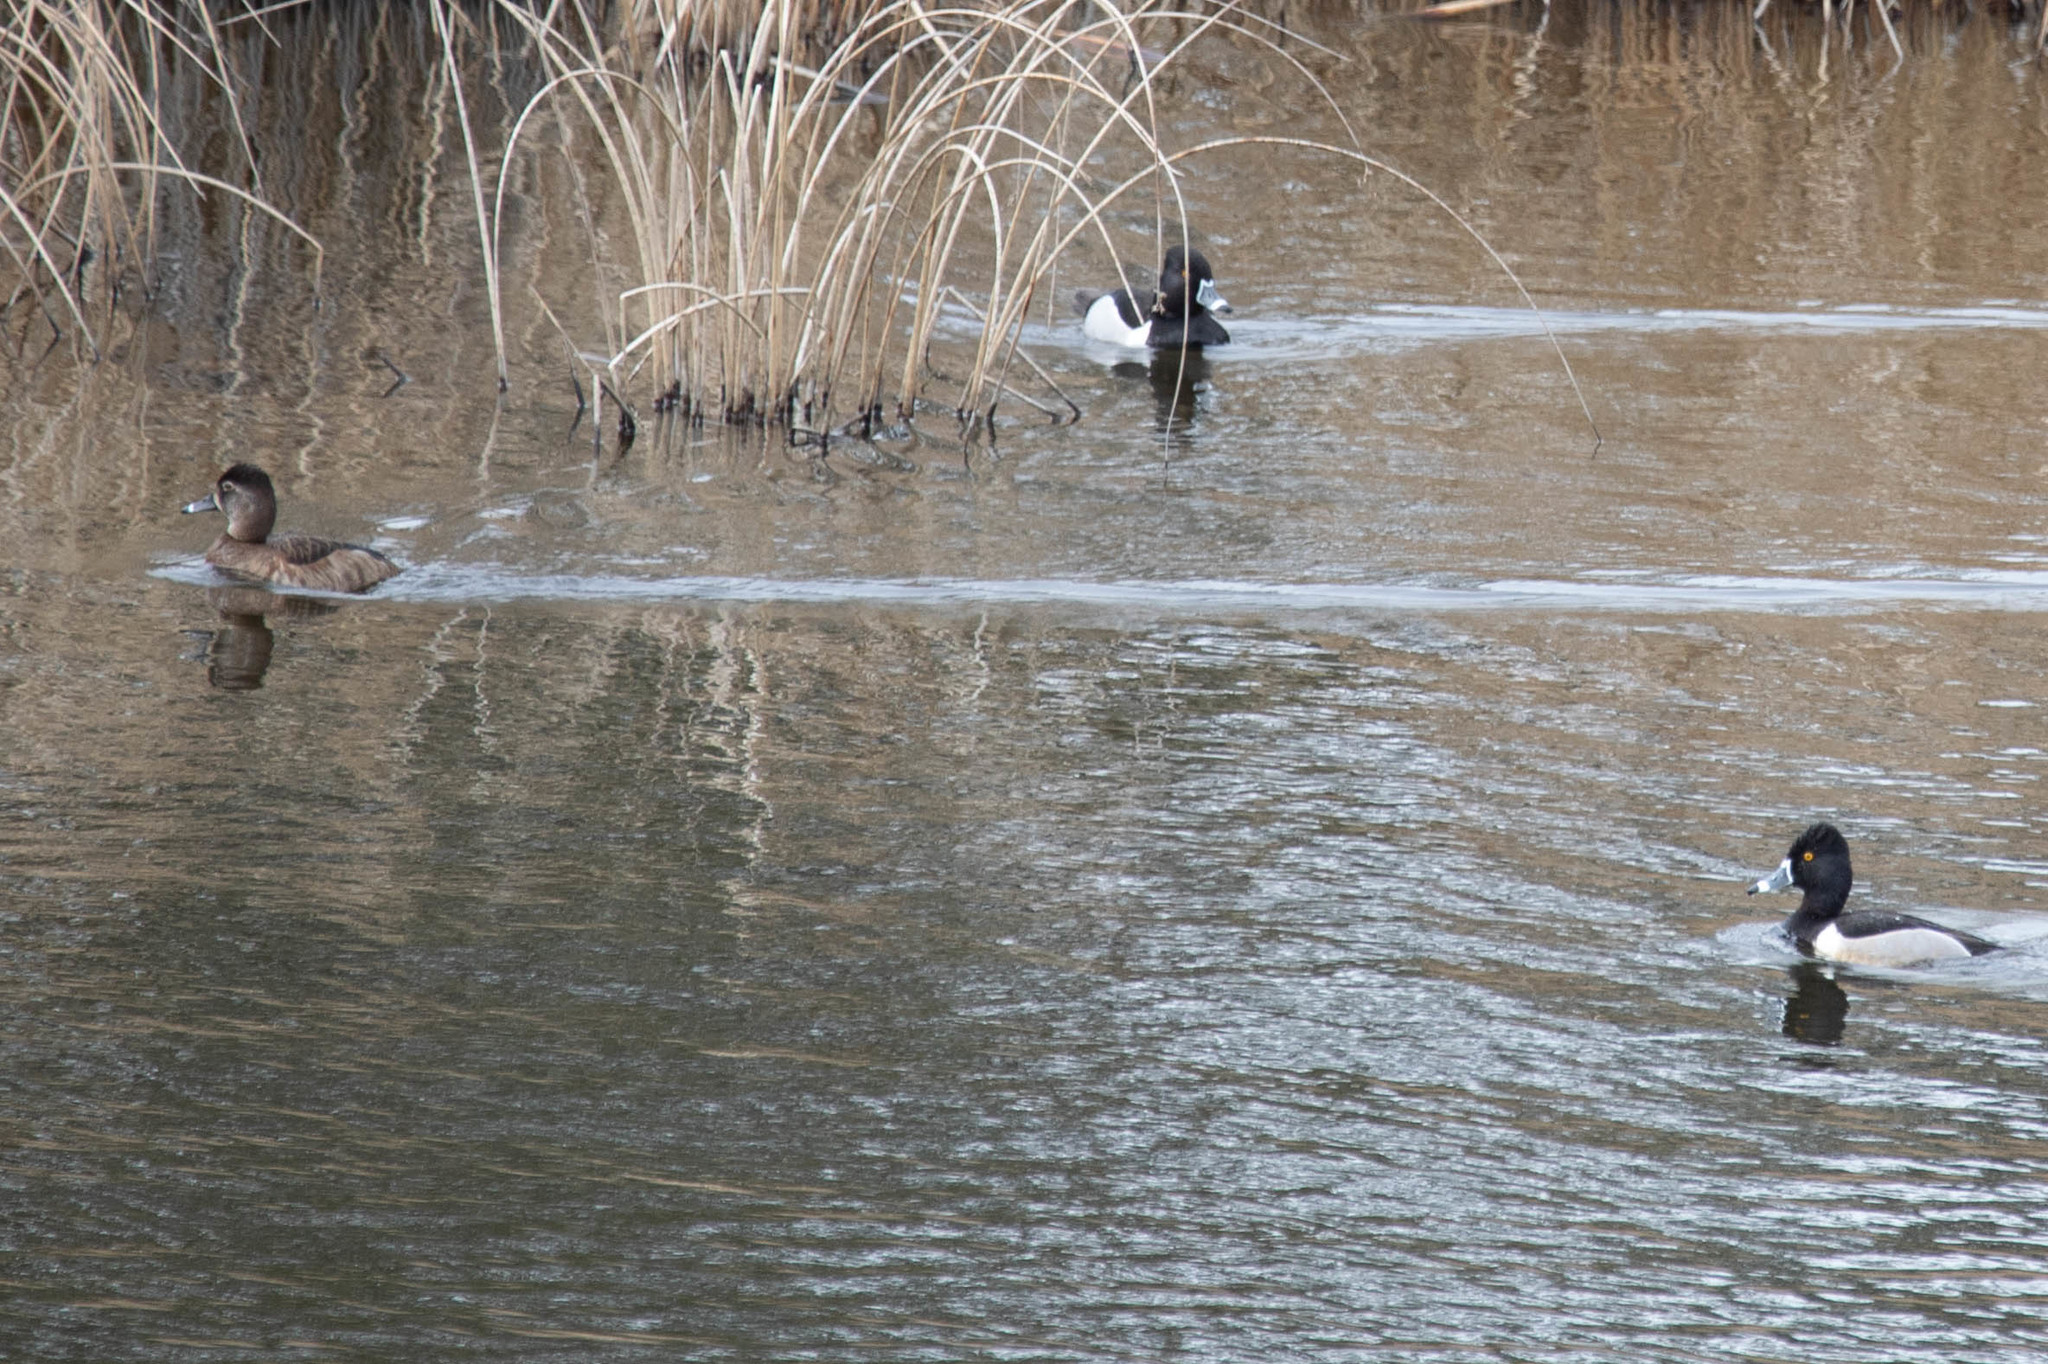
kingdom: Animalia
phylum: Chordata
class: Aves
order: Anseriformes
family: Anatidae
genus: Aythya
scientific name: Aythya collaris
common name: Ring-necked duck
